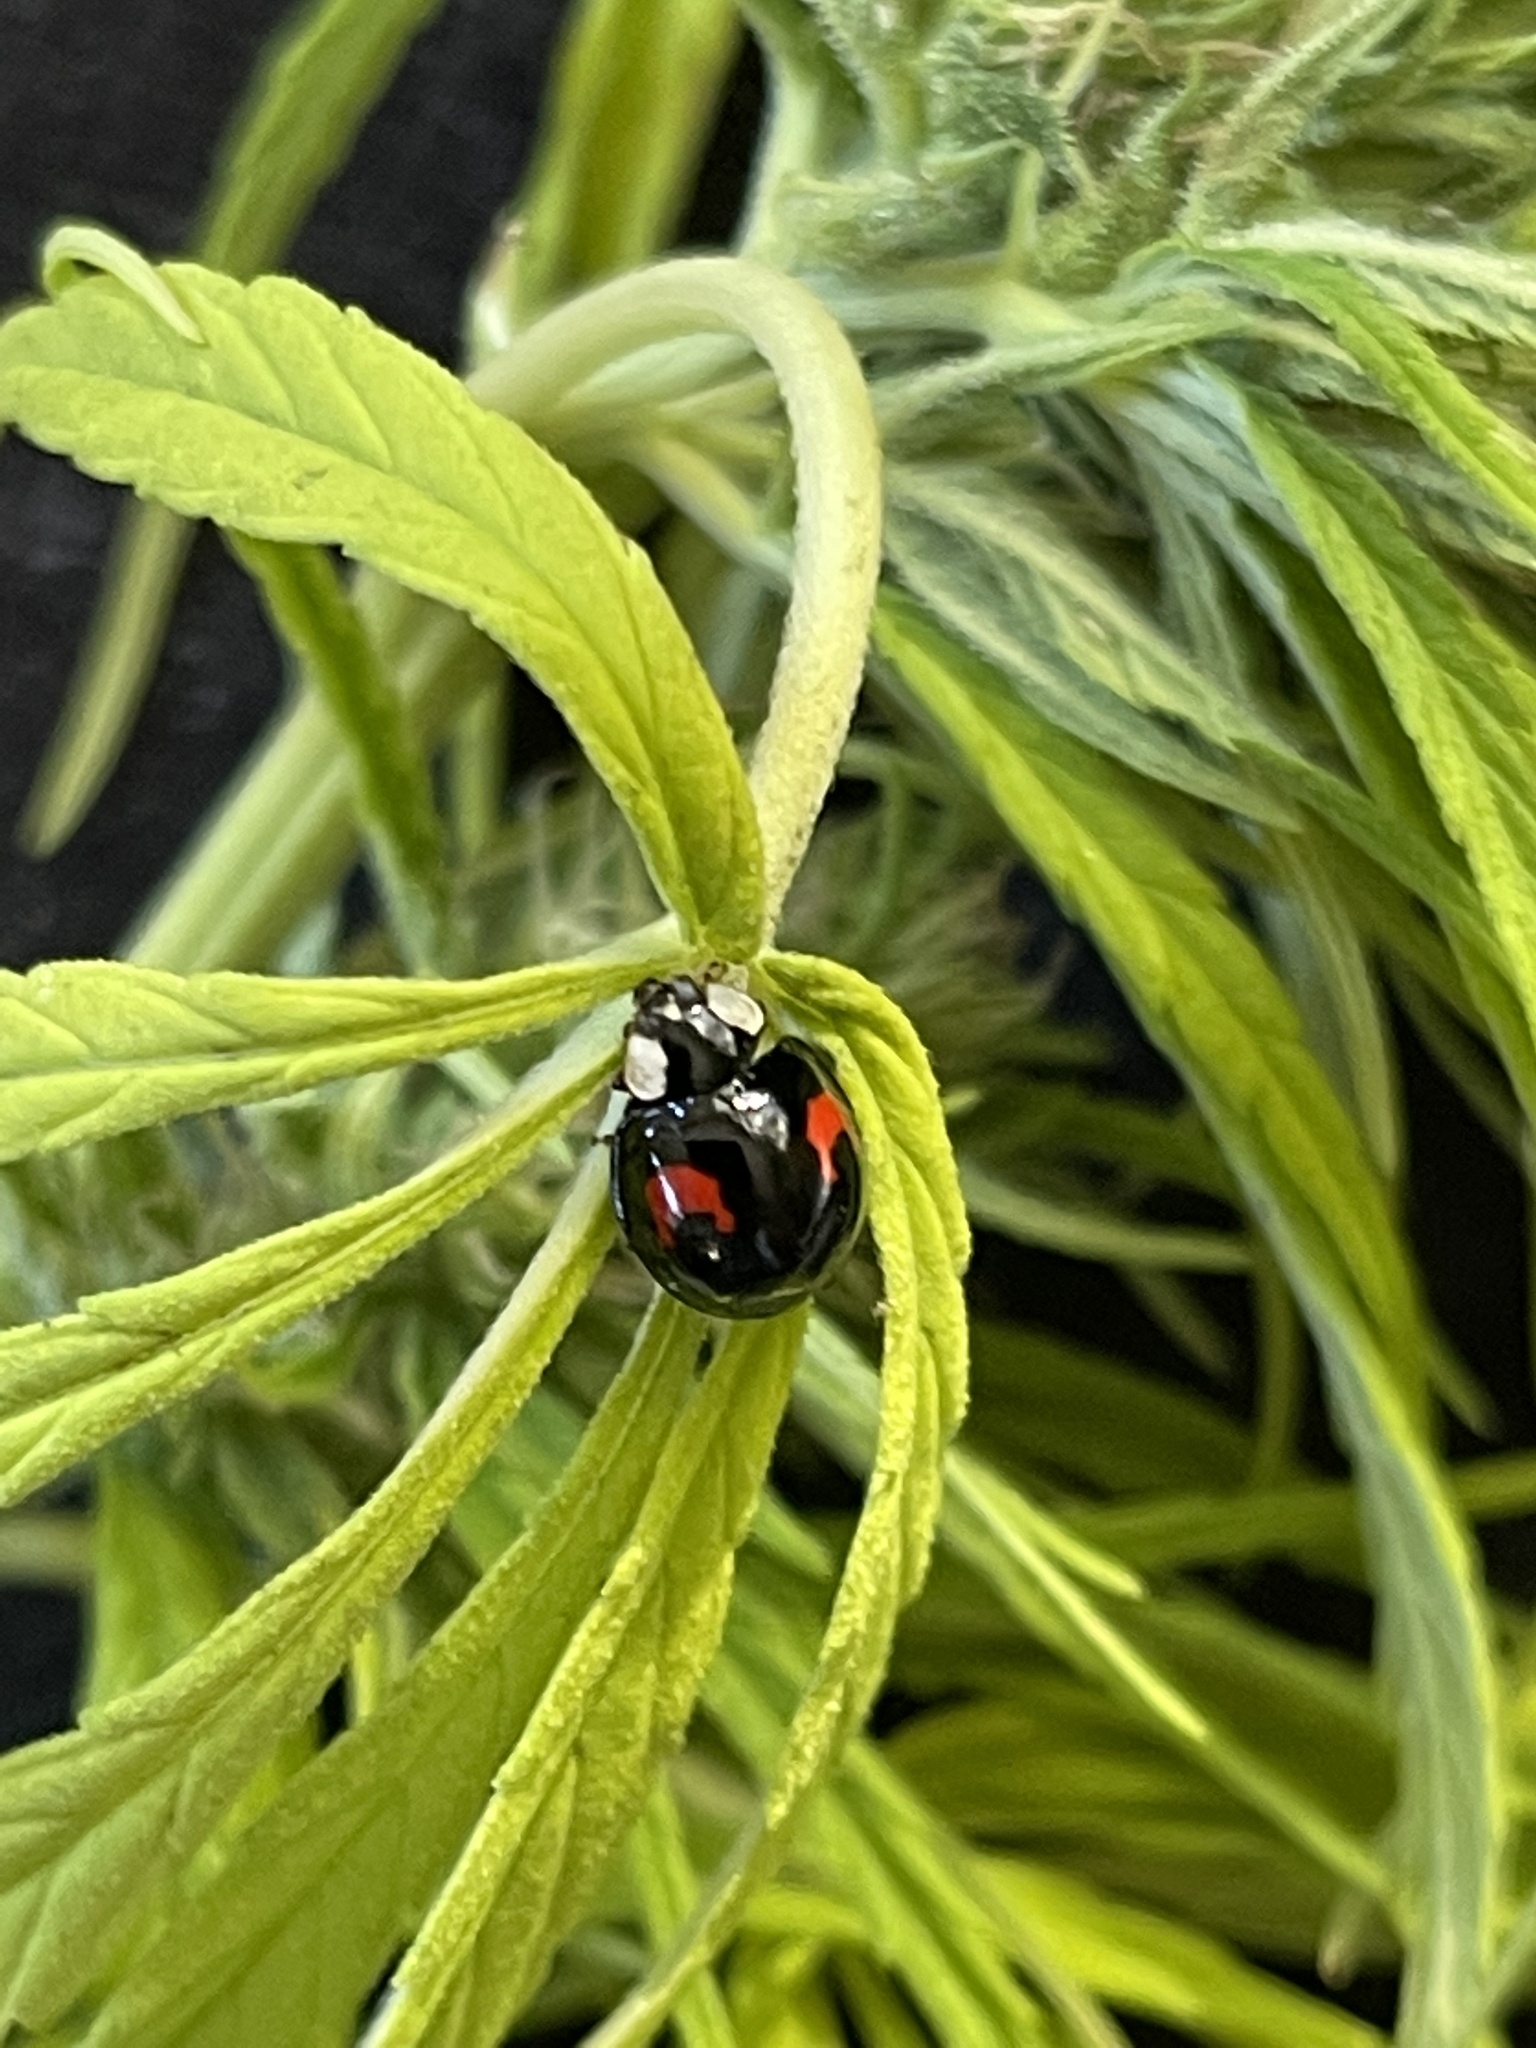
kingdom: Animalia
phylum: Arthropoda
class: Insecta
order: Coleoptera
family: Coccinellidae
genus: Harmonia
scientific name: Harmonia axyridis
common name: Harlequin ladybird
